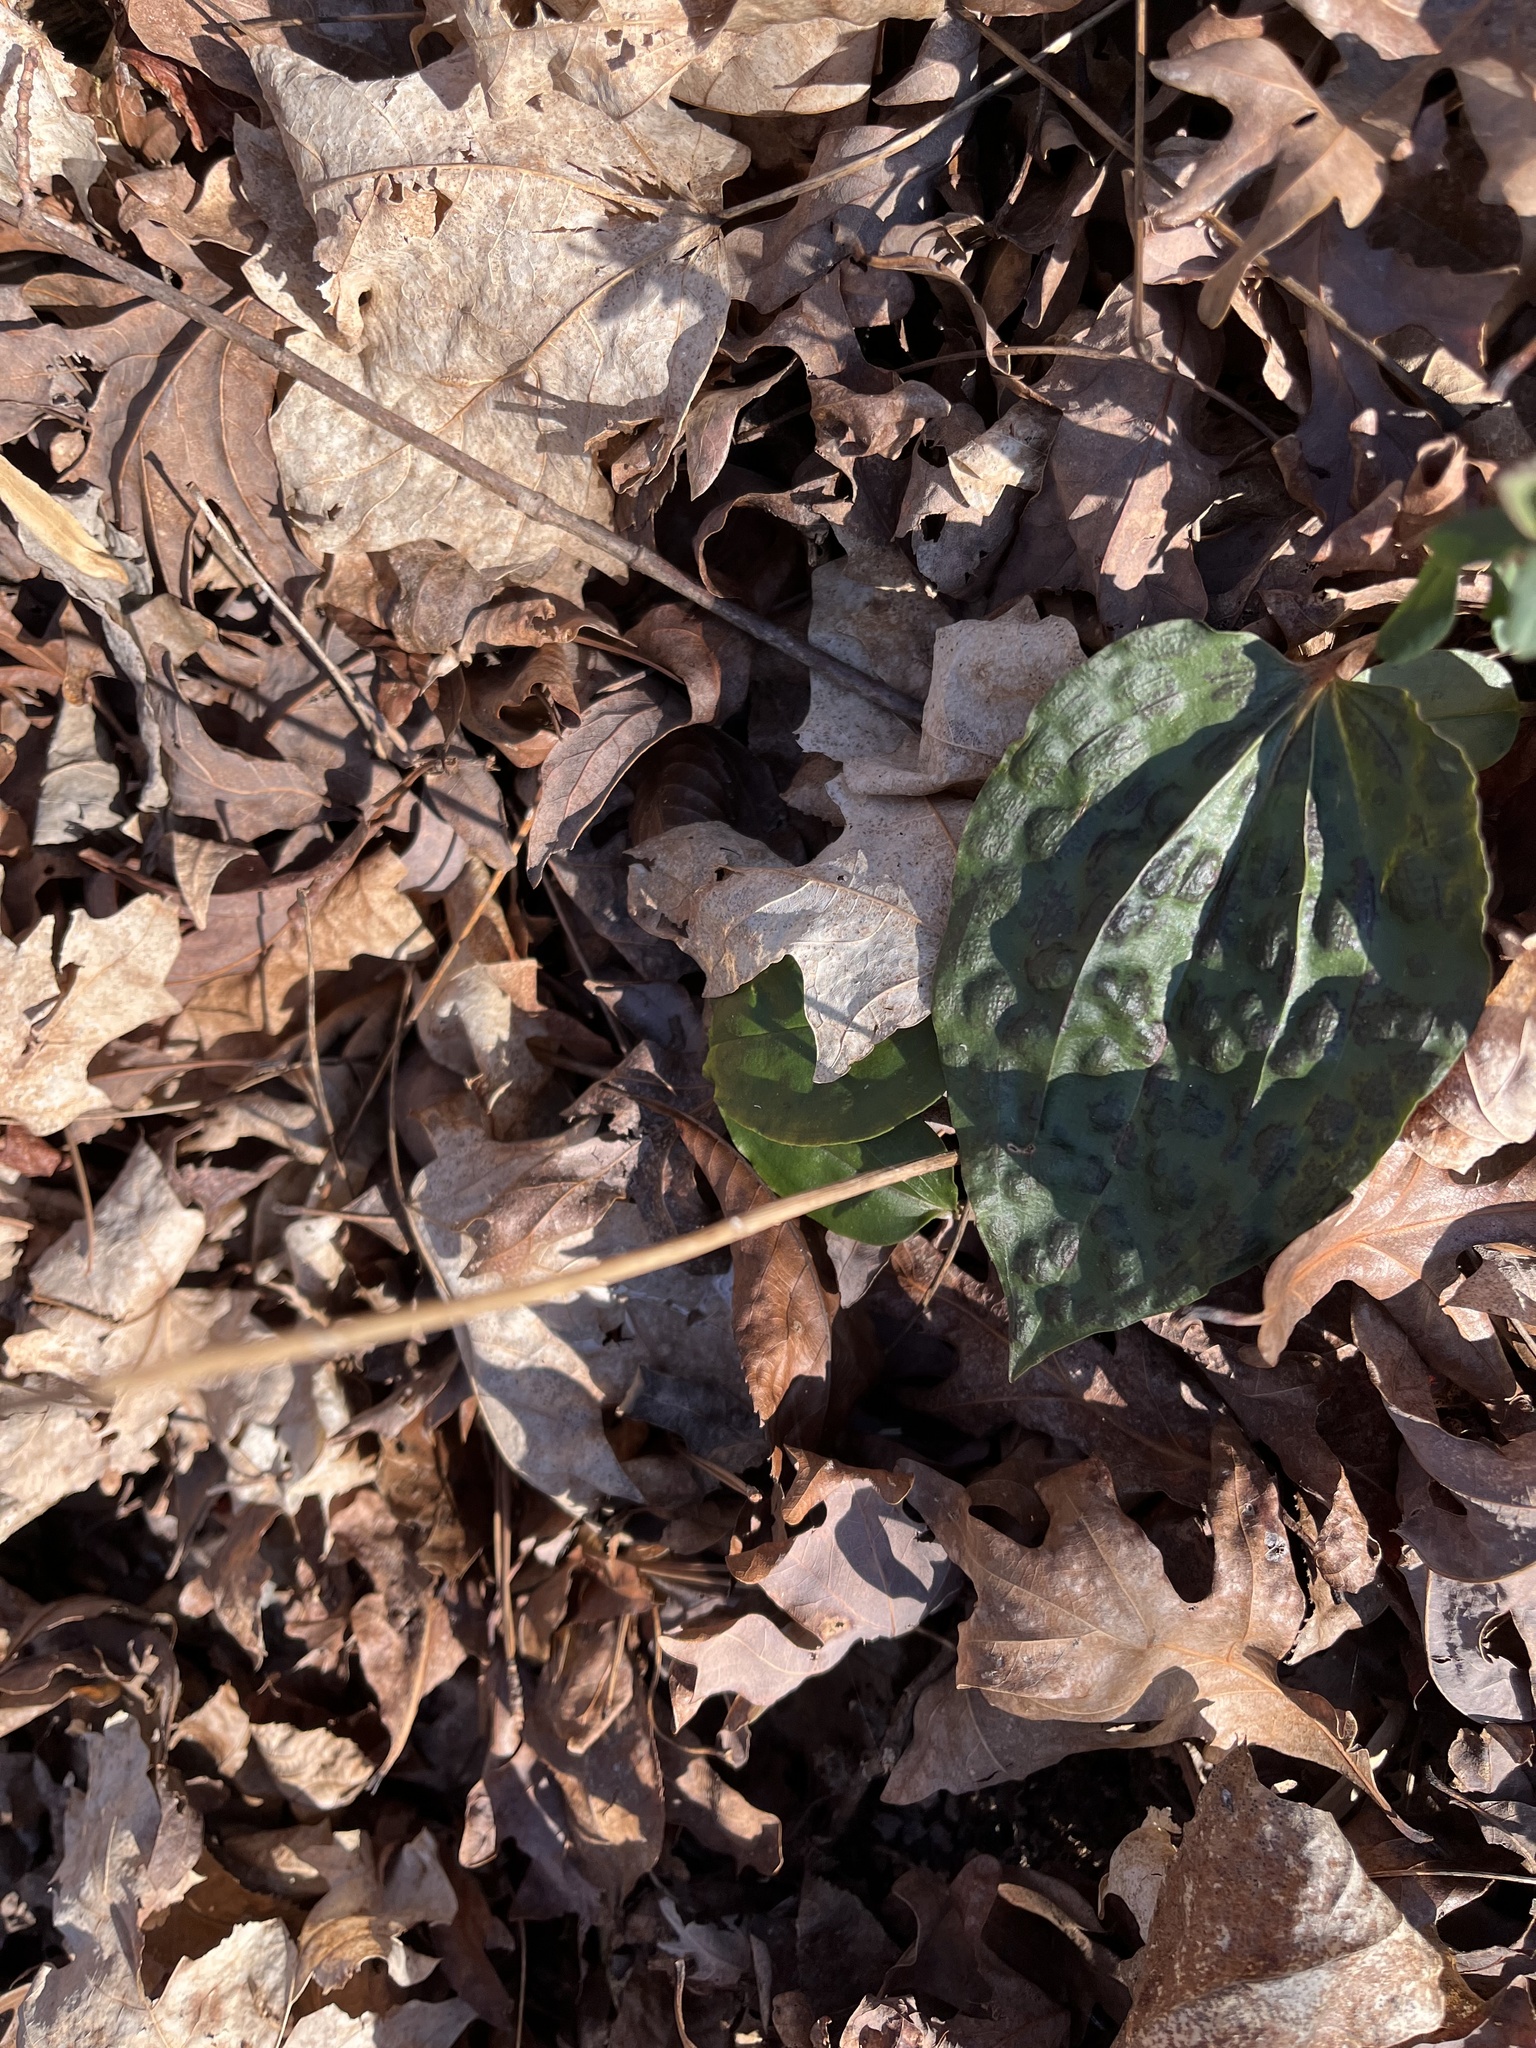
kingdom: Plantae
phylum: Tracheophyta
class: Liliopsida
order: Asparagales
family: Orchidaceae
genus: Tipularia
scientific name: Tipularia discolor
